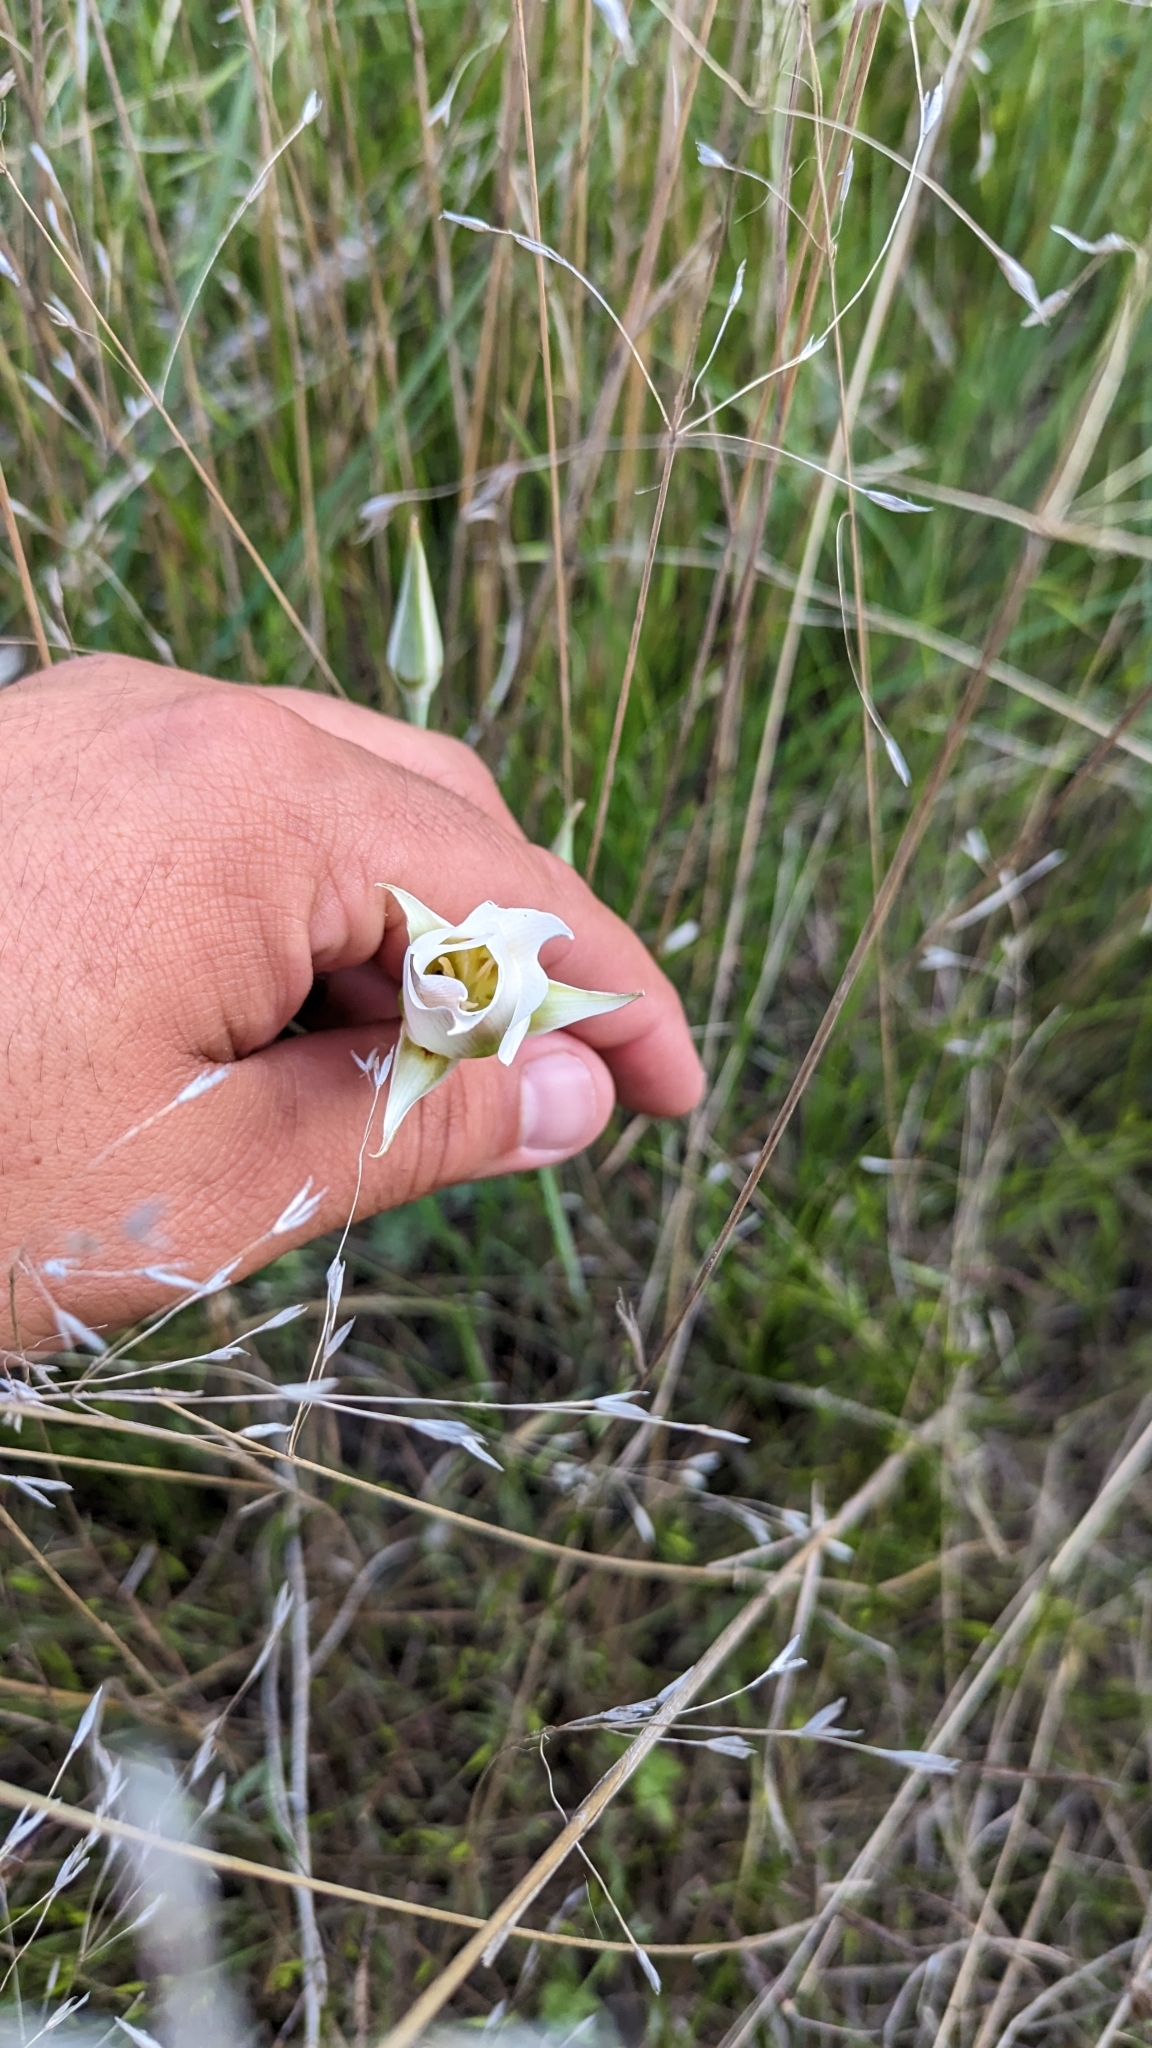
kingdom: Plantae
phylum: Tracheophyta
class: Liliopsida
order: Liliales
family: Liliaceae
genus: Calochortus
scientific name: Calochortus nuttallii
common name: Sego-lily
